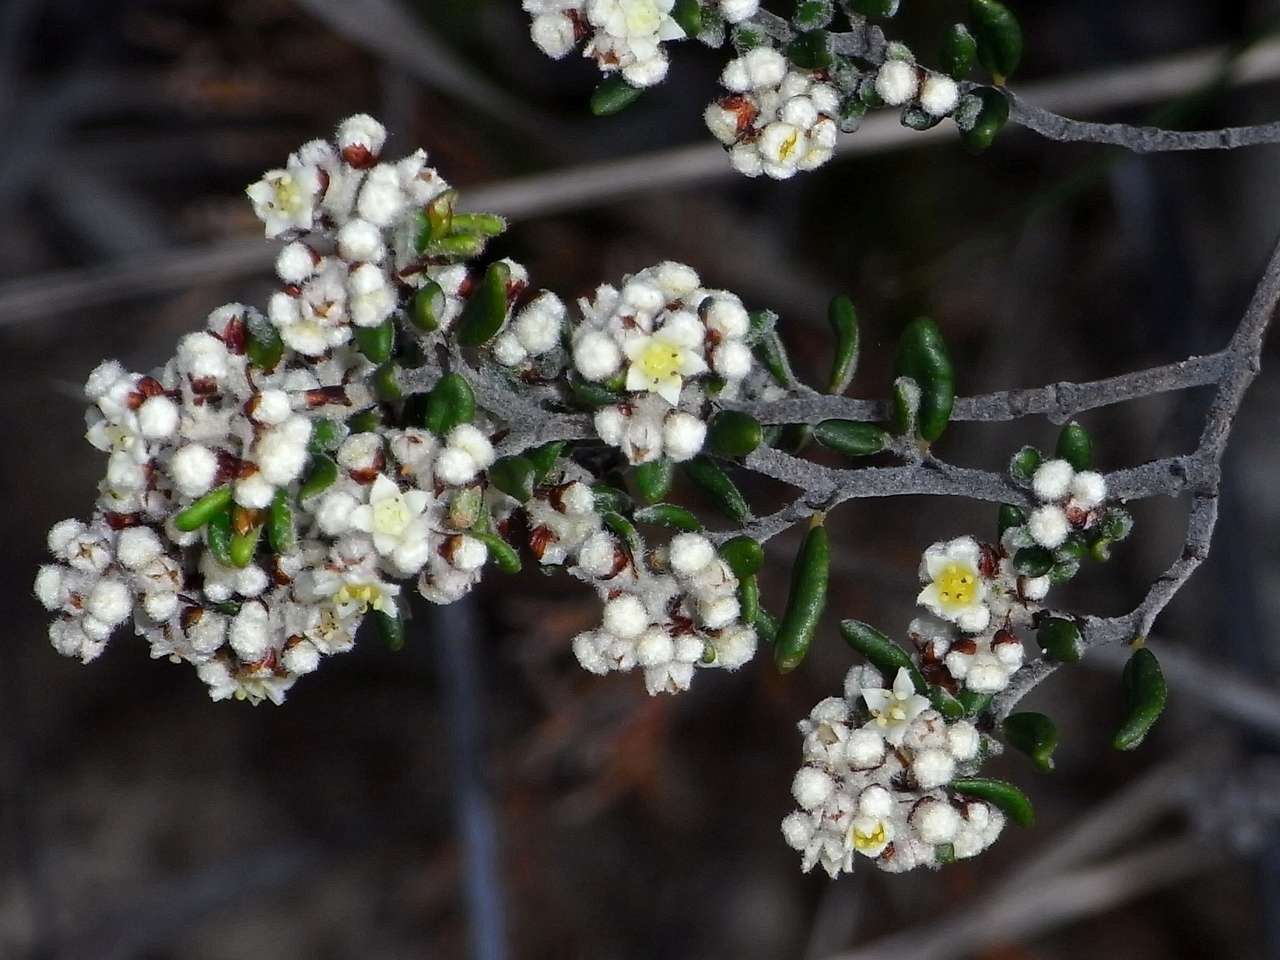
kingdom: Plantae
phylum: Tracheophyta
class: Magnoliopsida
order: Rosales
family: Rhamnaceae
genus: Spyridium
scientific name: Spyridium subochreatum
